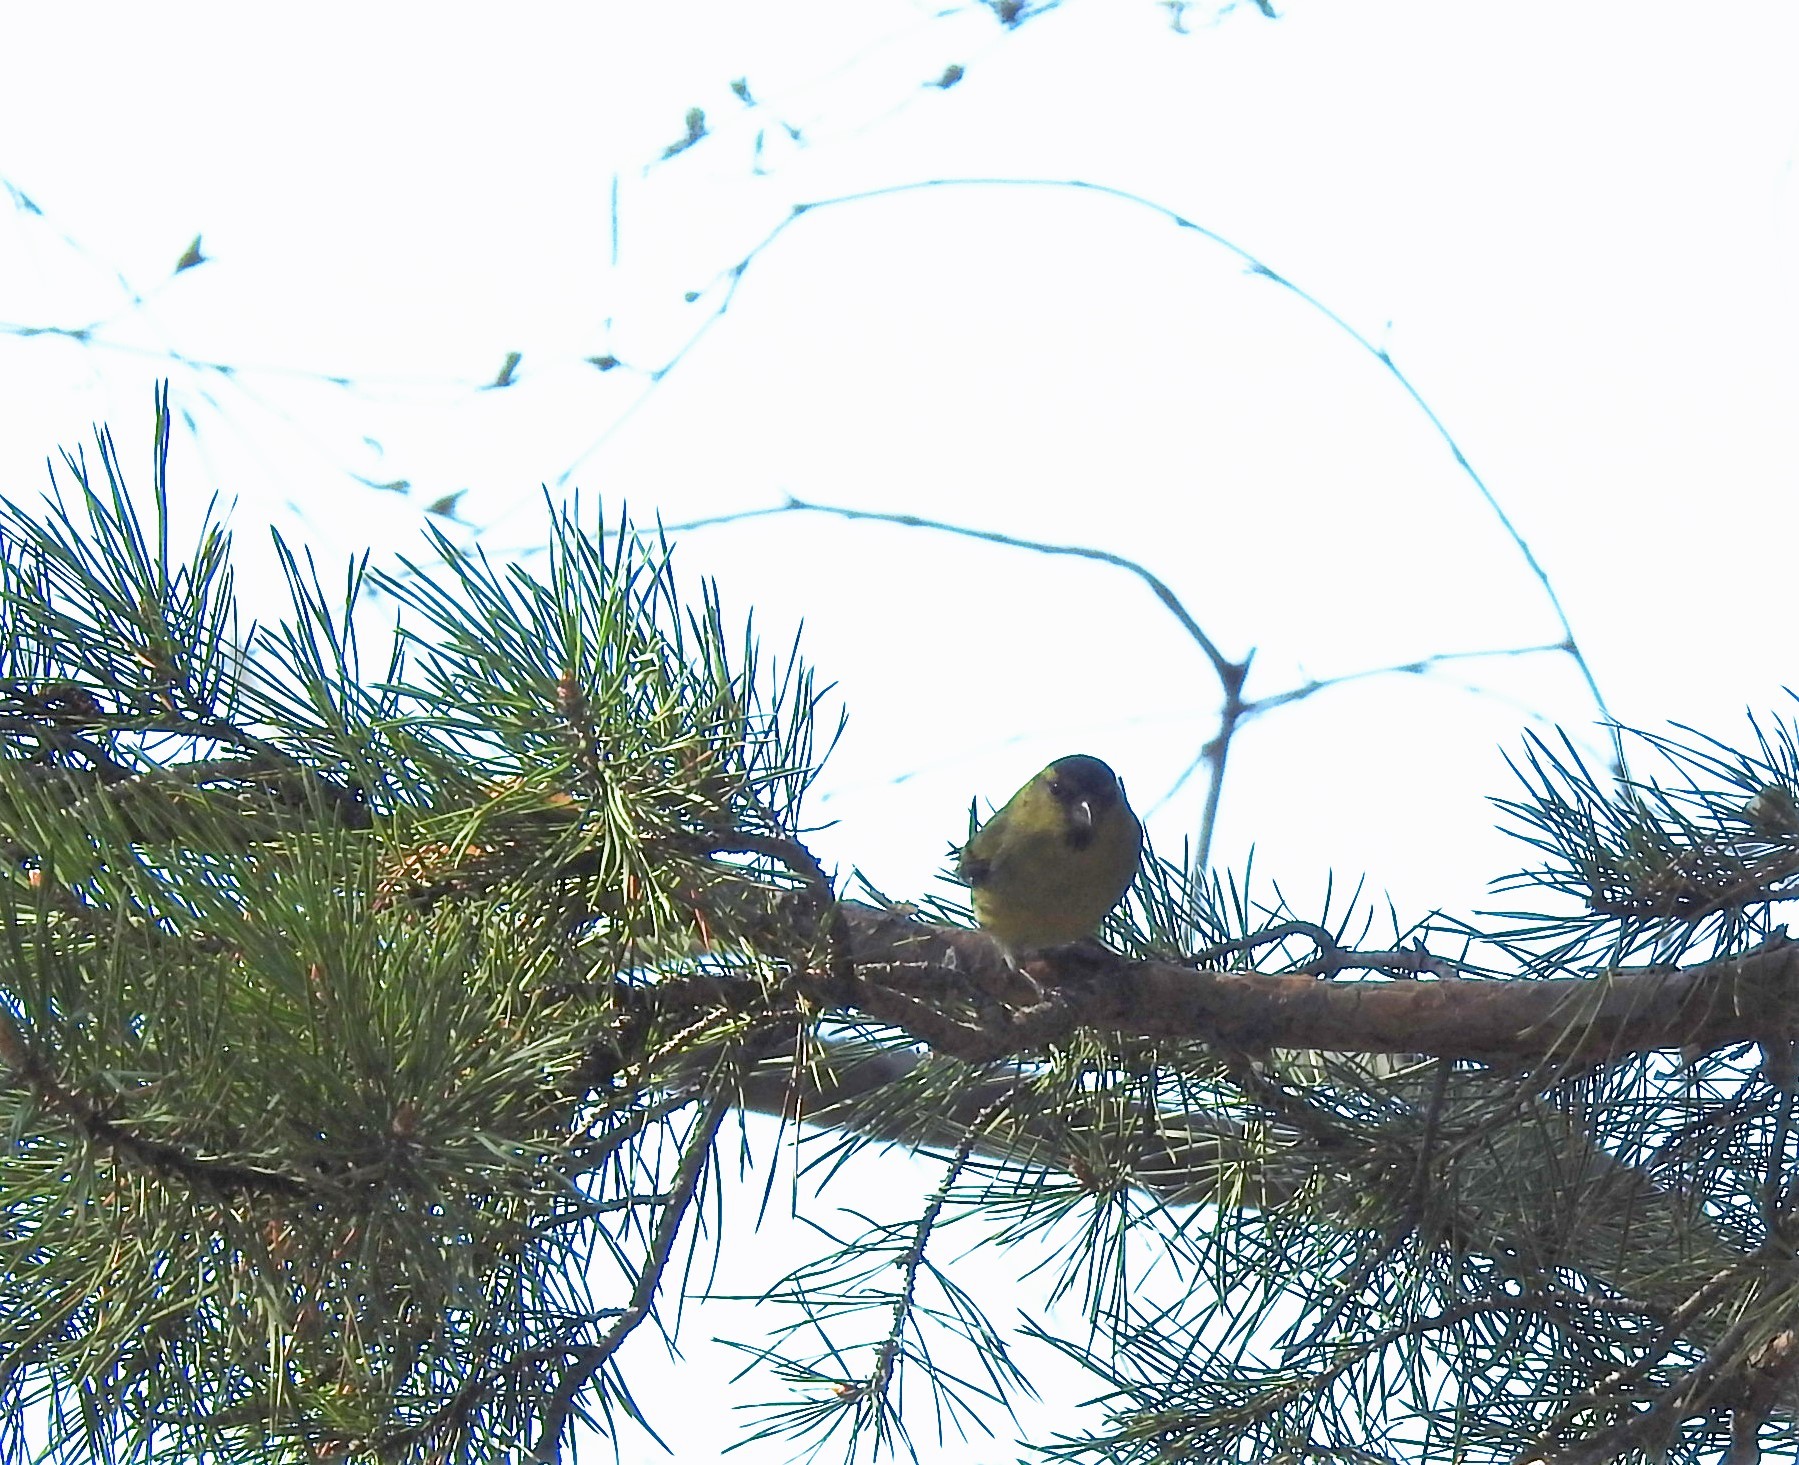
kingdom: Animalia
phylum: Chordata
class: Aves
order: Passeriformes
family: Fringillidae
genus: Spinus
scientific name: Spinus spinus
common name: Eurasian siskin
